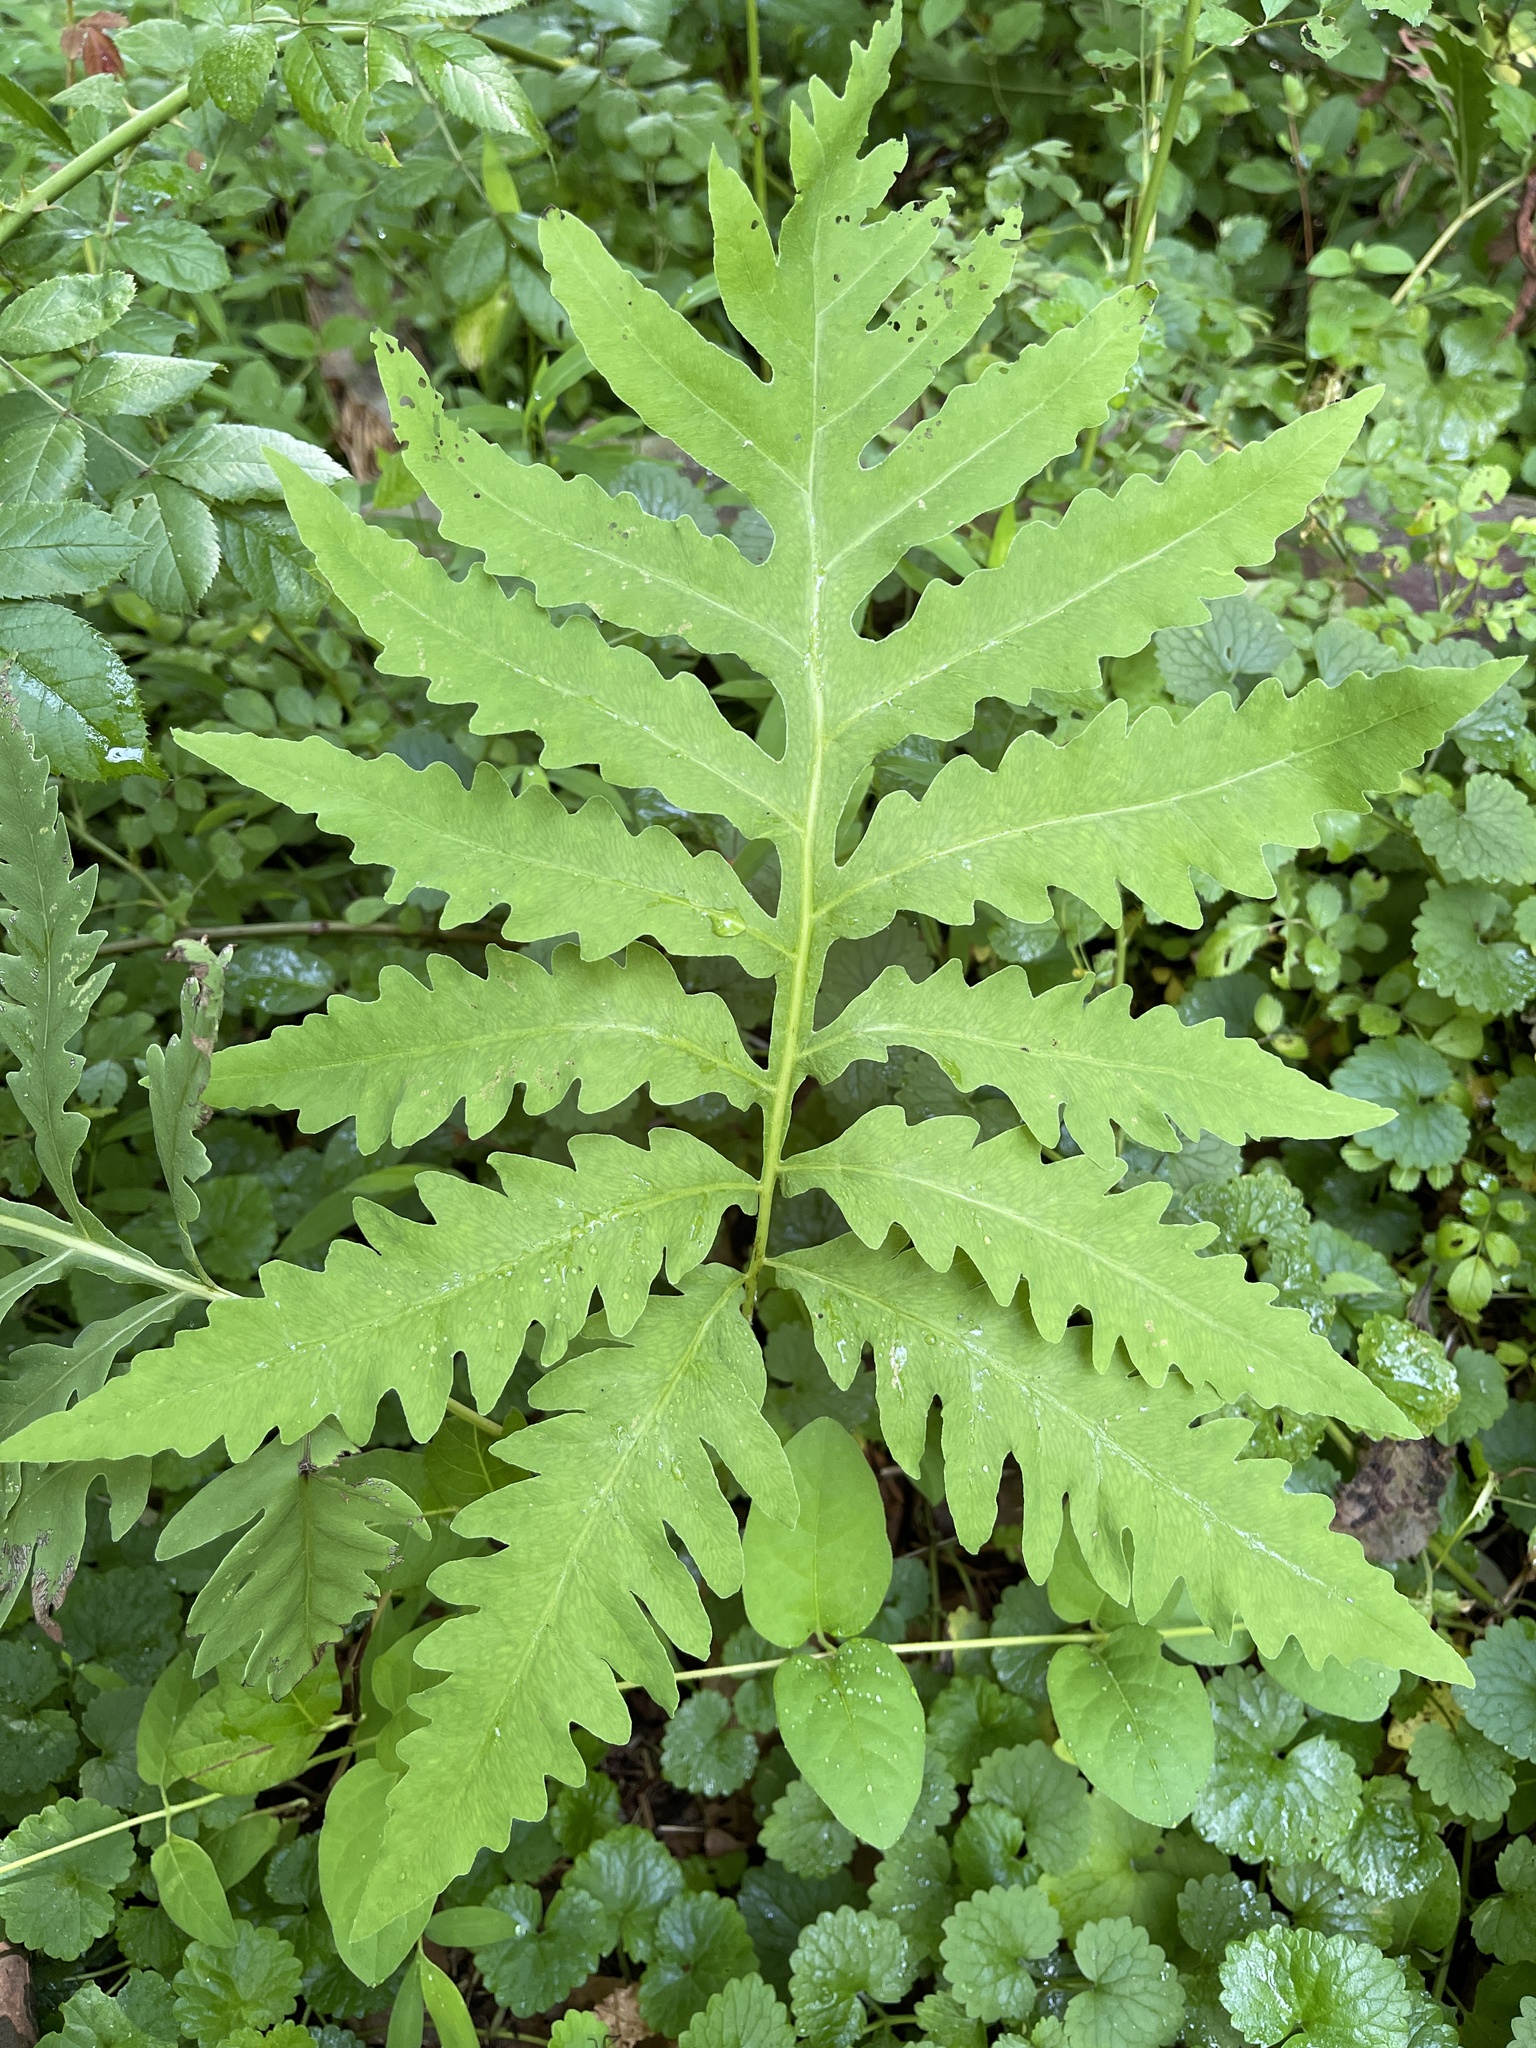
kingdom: Plantae
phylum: Tracheophyta
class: Polypodiopsida
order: Polypodiales
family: Onocleaceae
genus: Onoclea
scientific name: Onoclea sensibilis
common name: Sensitive fern
